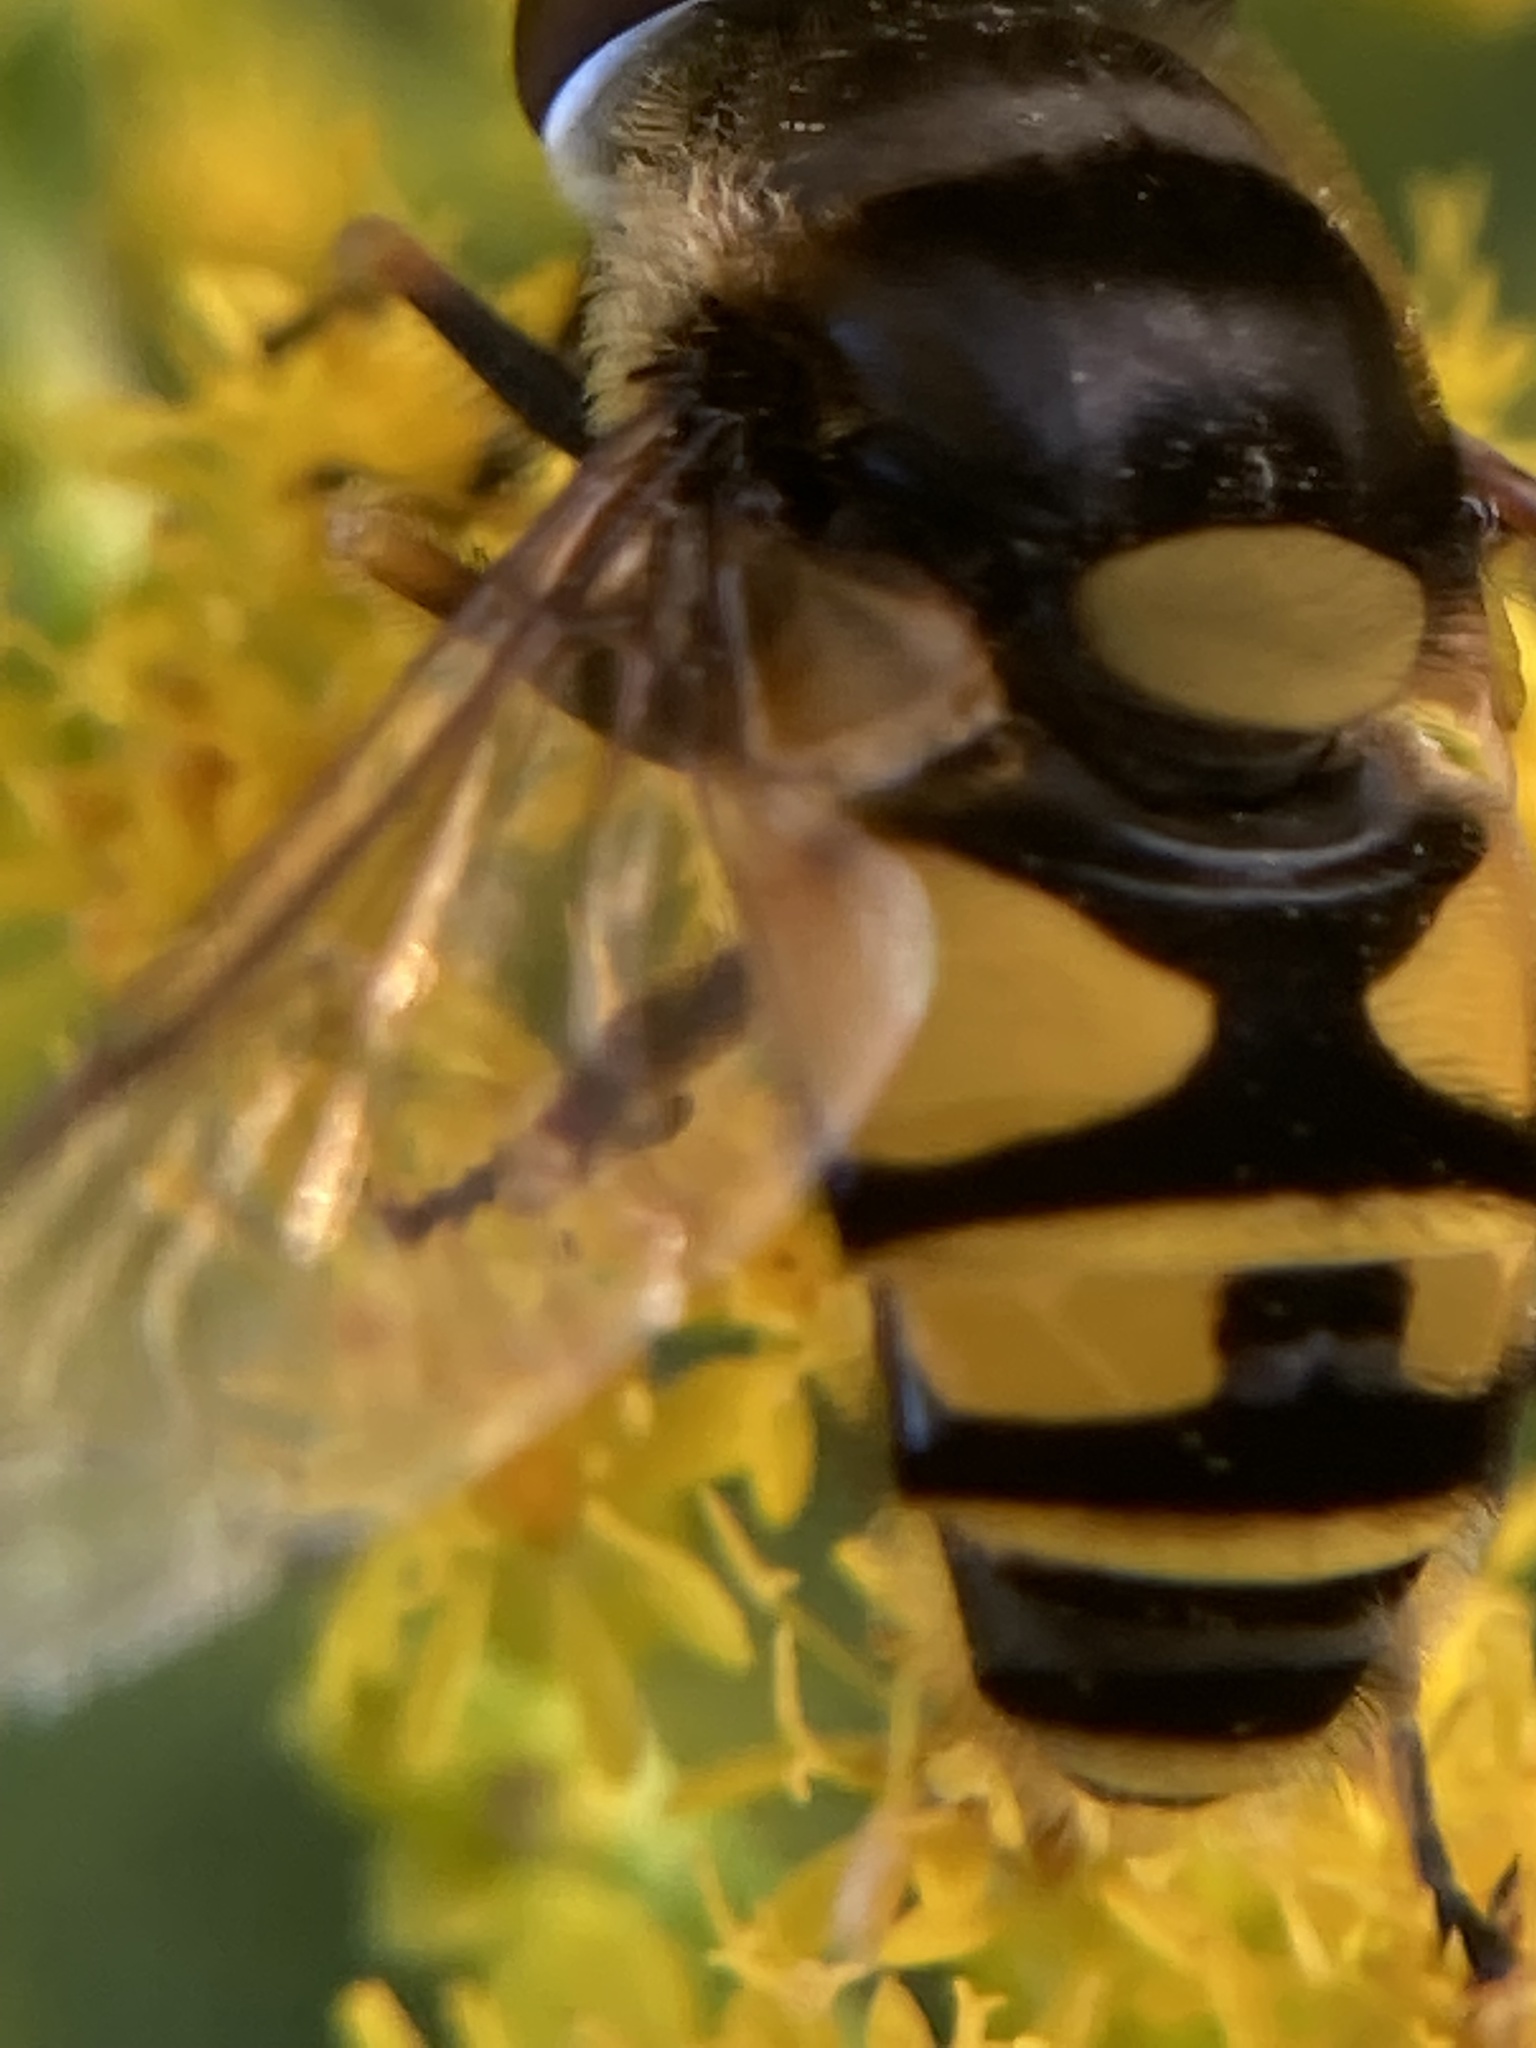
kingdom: Animalia
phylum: Arthropoda
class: Insecta
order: Diptera
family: Syrphidae
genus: Eristalis
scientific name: Eristalis transversa
